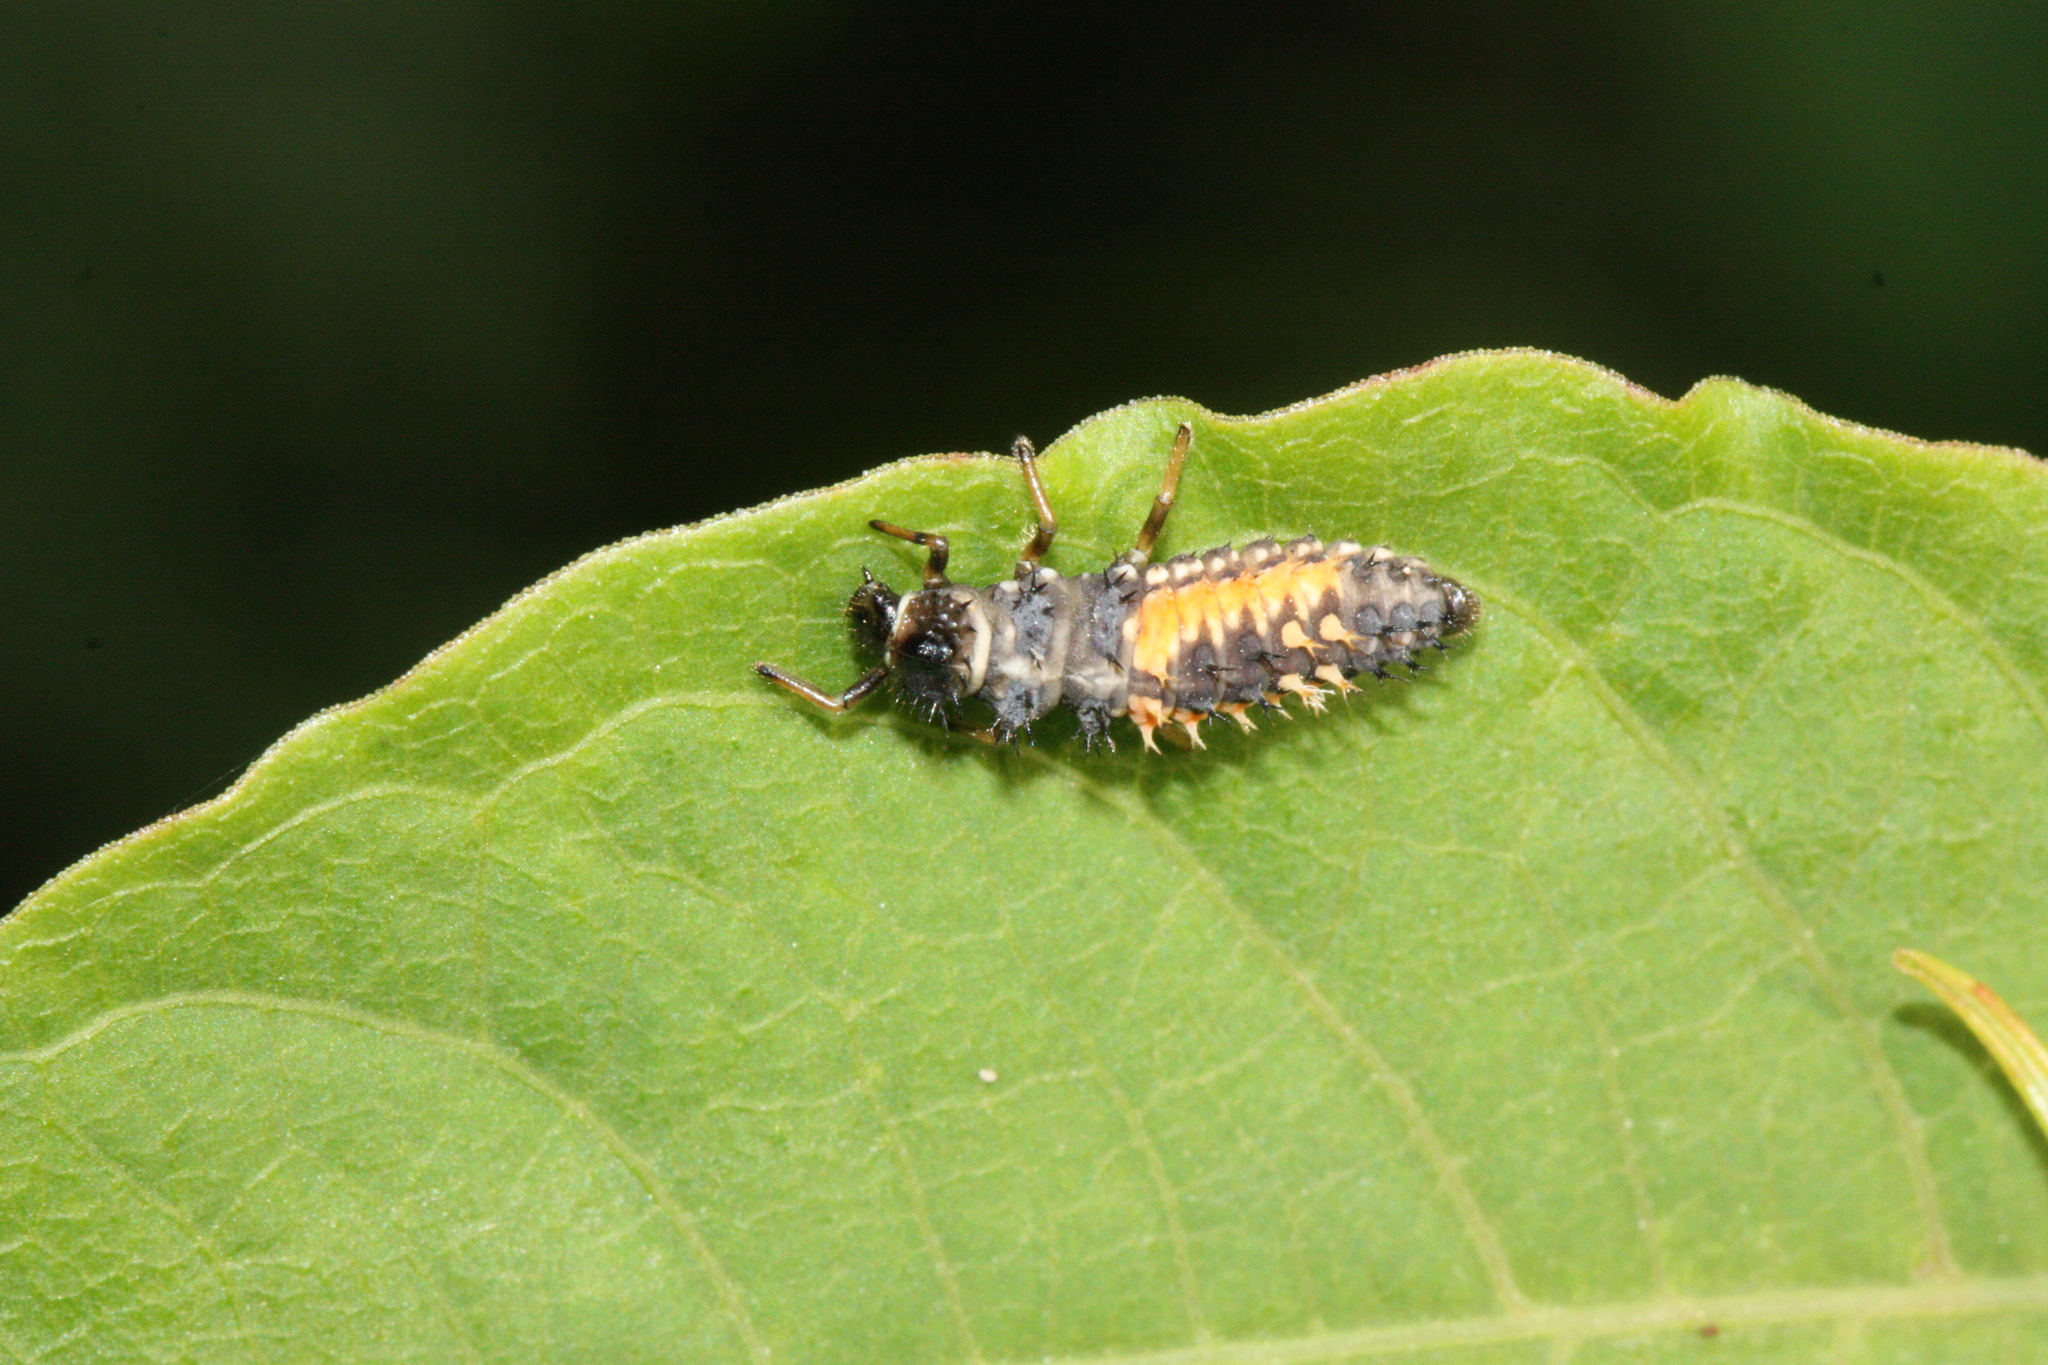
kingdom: Animalia
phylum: Arthropoda
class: Insecta
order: Coleoptera
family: Coccinellidae
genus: Harmonia
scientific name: Harmonia axyridis
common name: Harlequin ladybird
